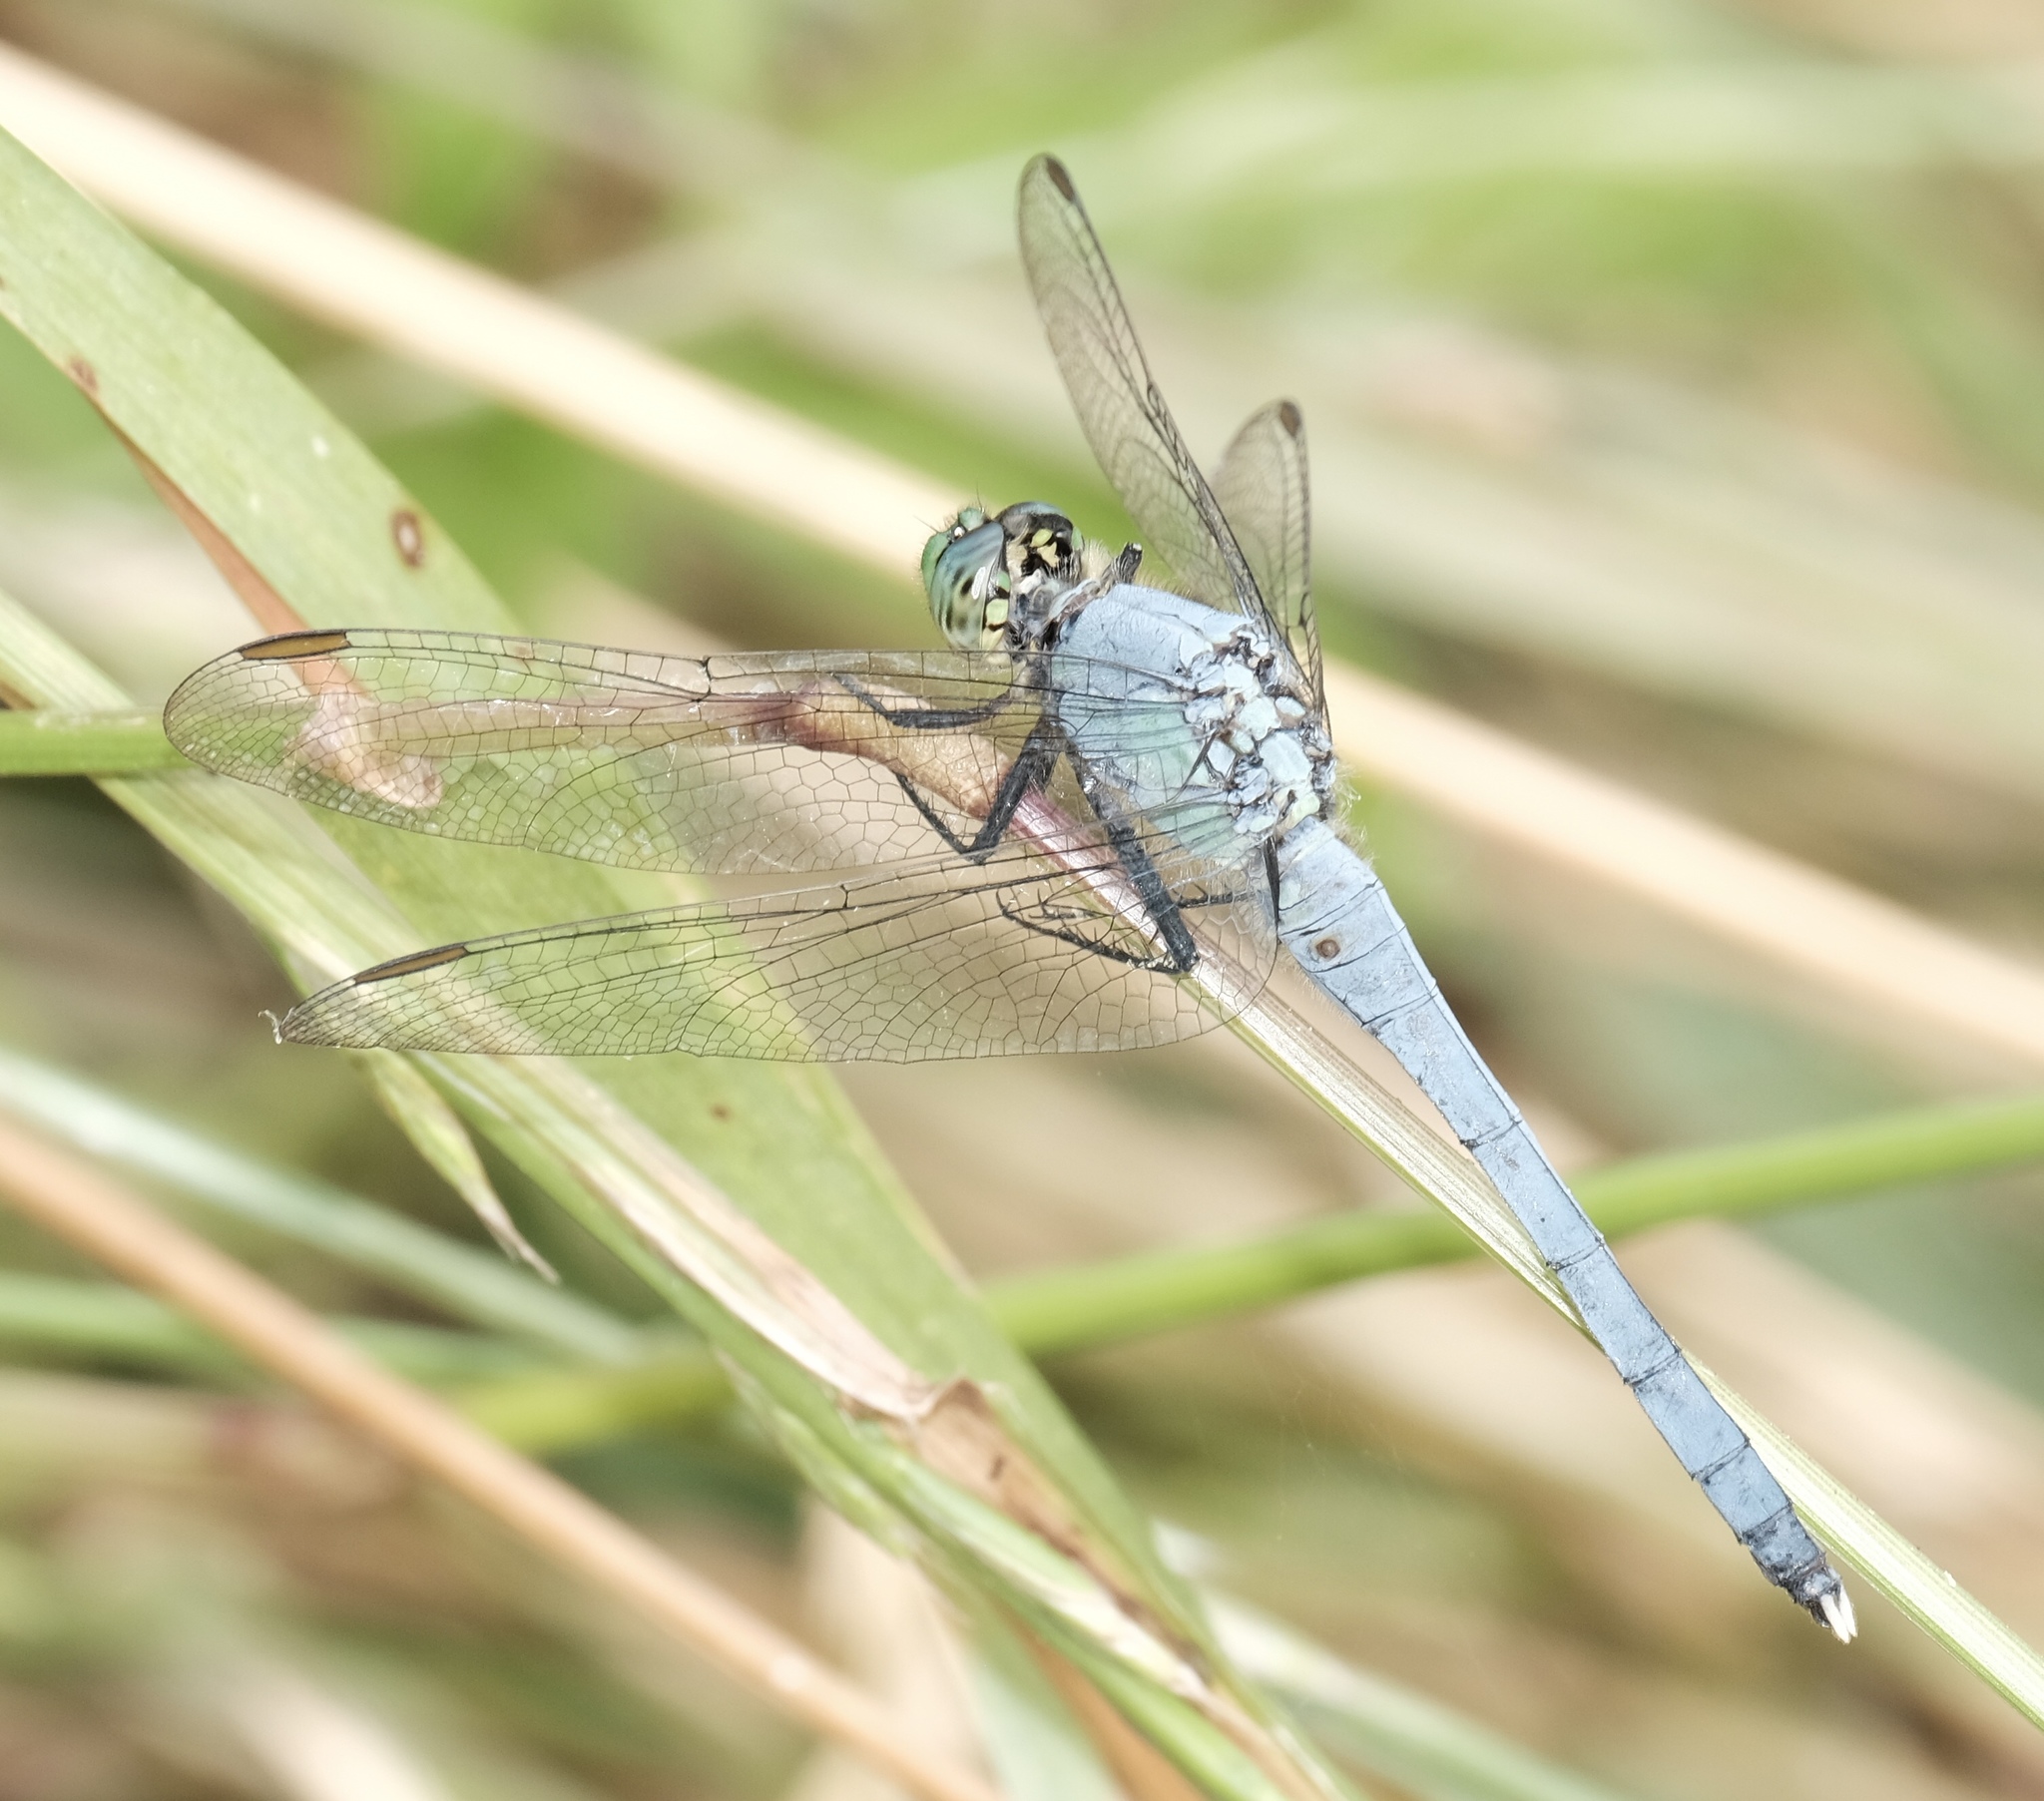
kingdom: Animalia
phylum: Arthropoda
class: Insecta
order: Odonata
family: Libellulidae
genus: Erythemis
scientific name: Erythemis simplicicollis
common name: Eastern pondhawk
